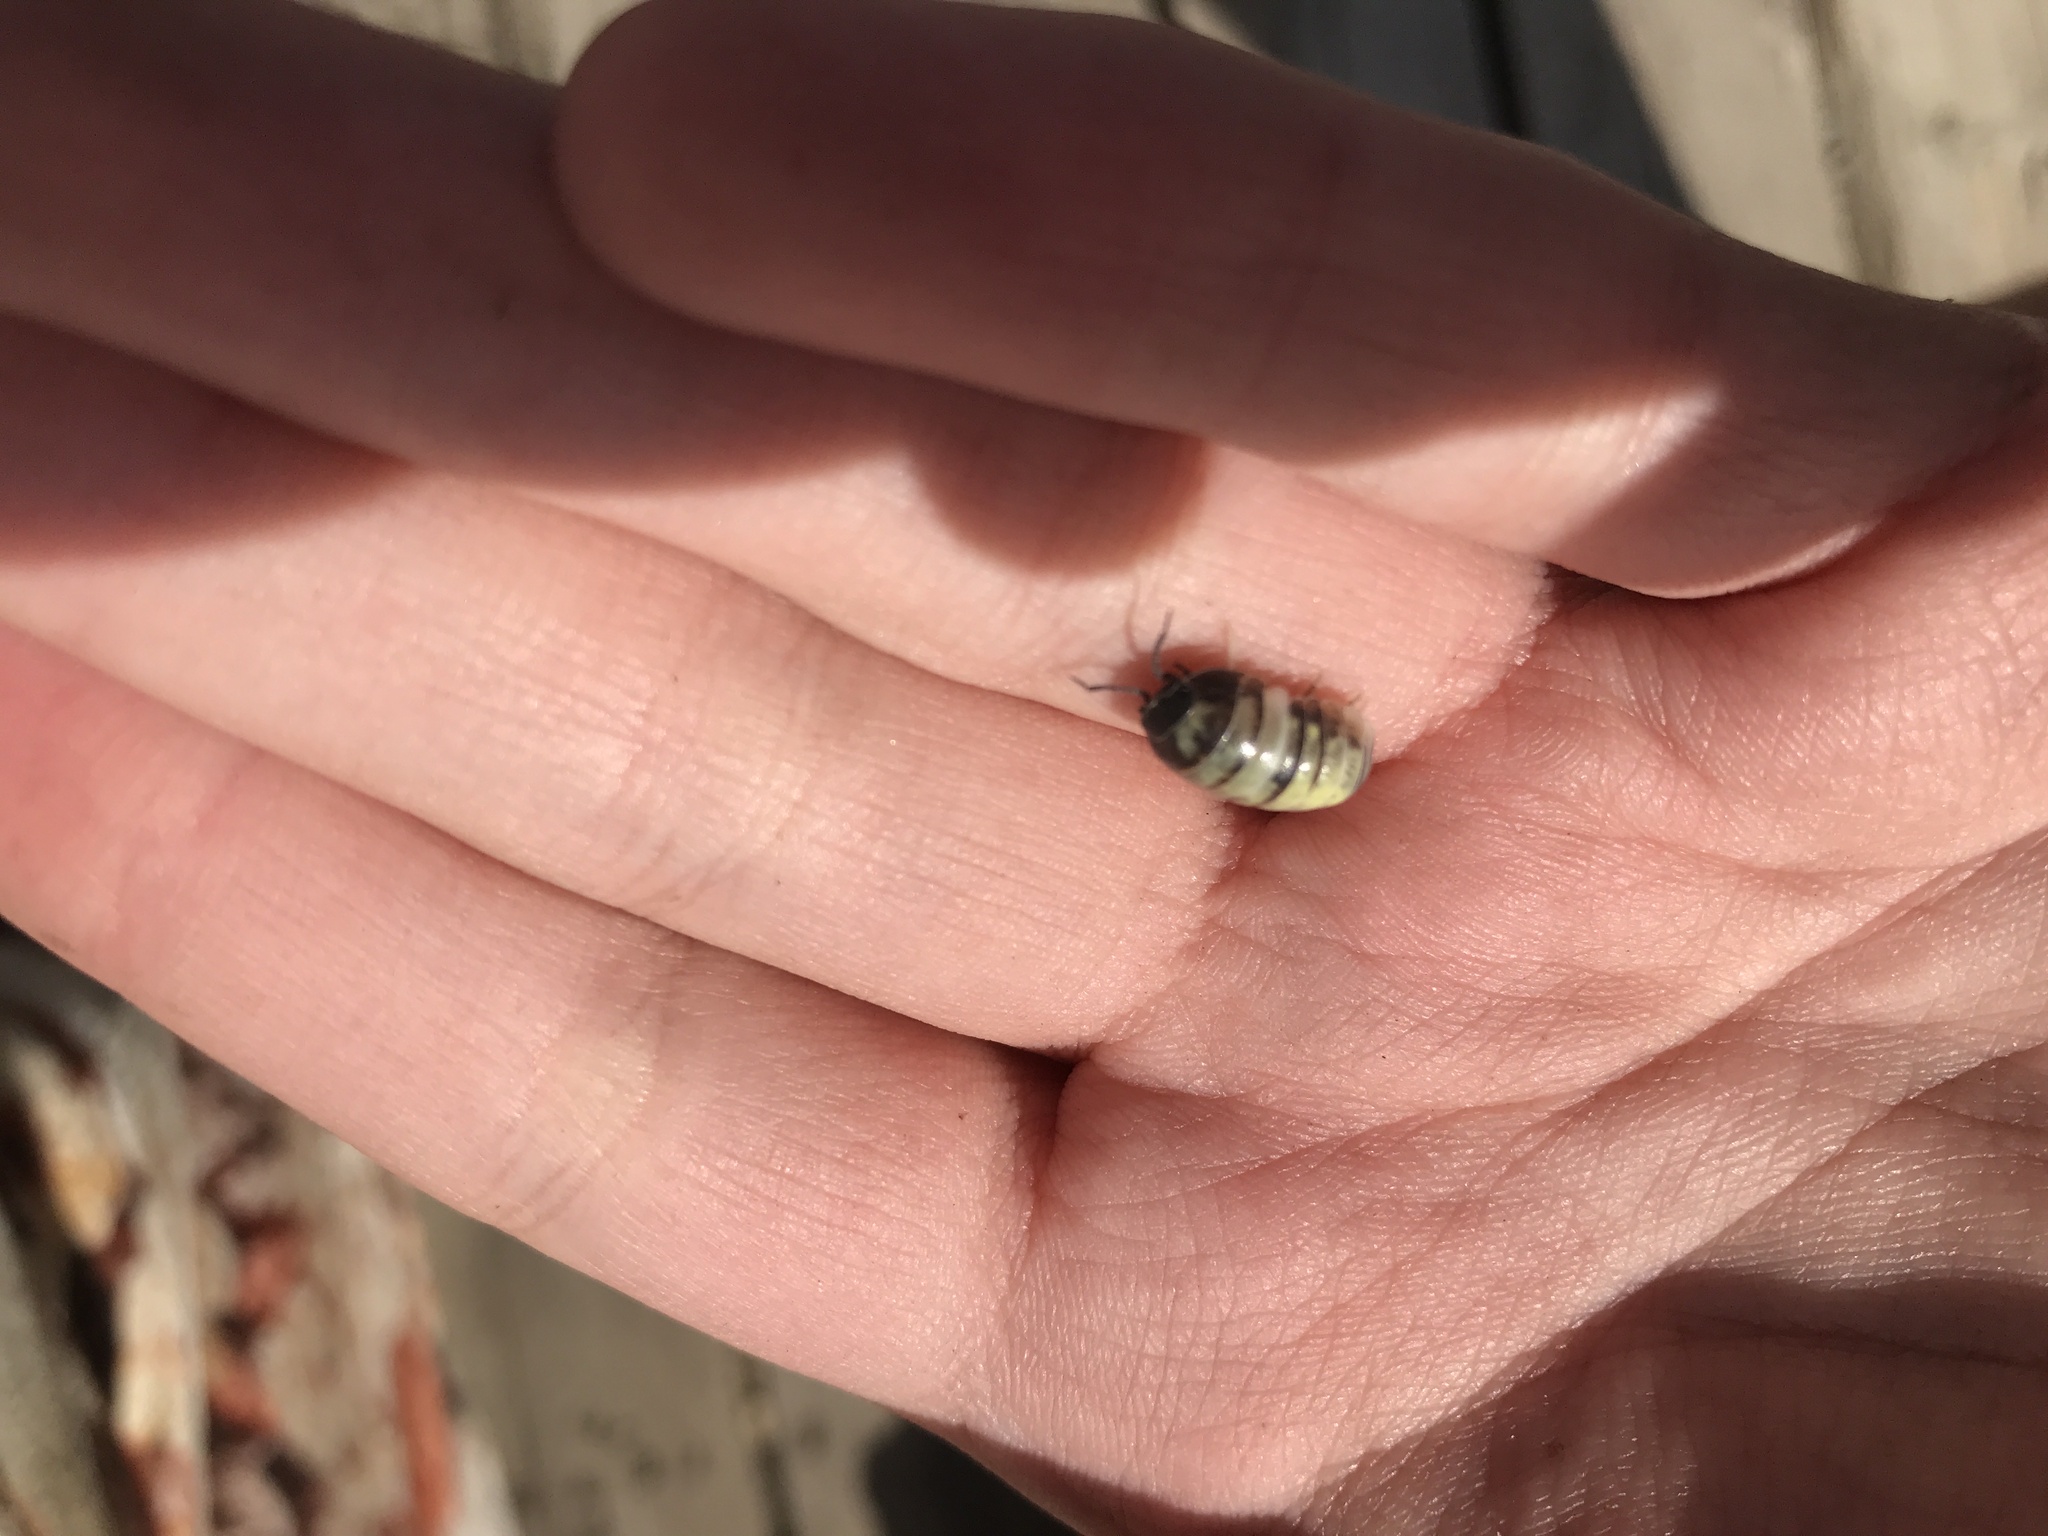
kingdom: Animalia
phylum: Arthropoda
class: Malacostraca
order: Isopoda
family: Armadillidiidae
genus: Armadillidium
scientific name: Armadillidium vulgare
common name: Common pill woodlouse
